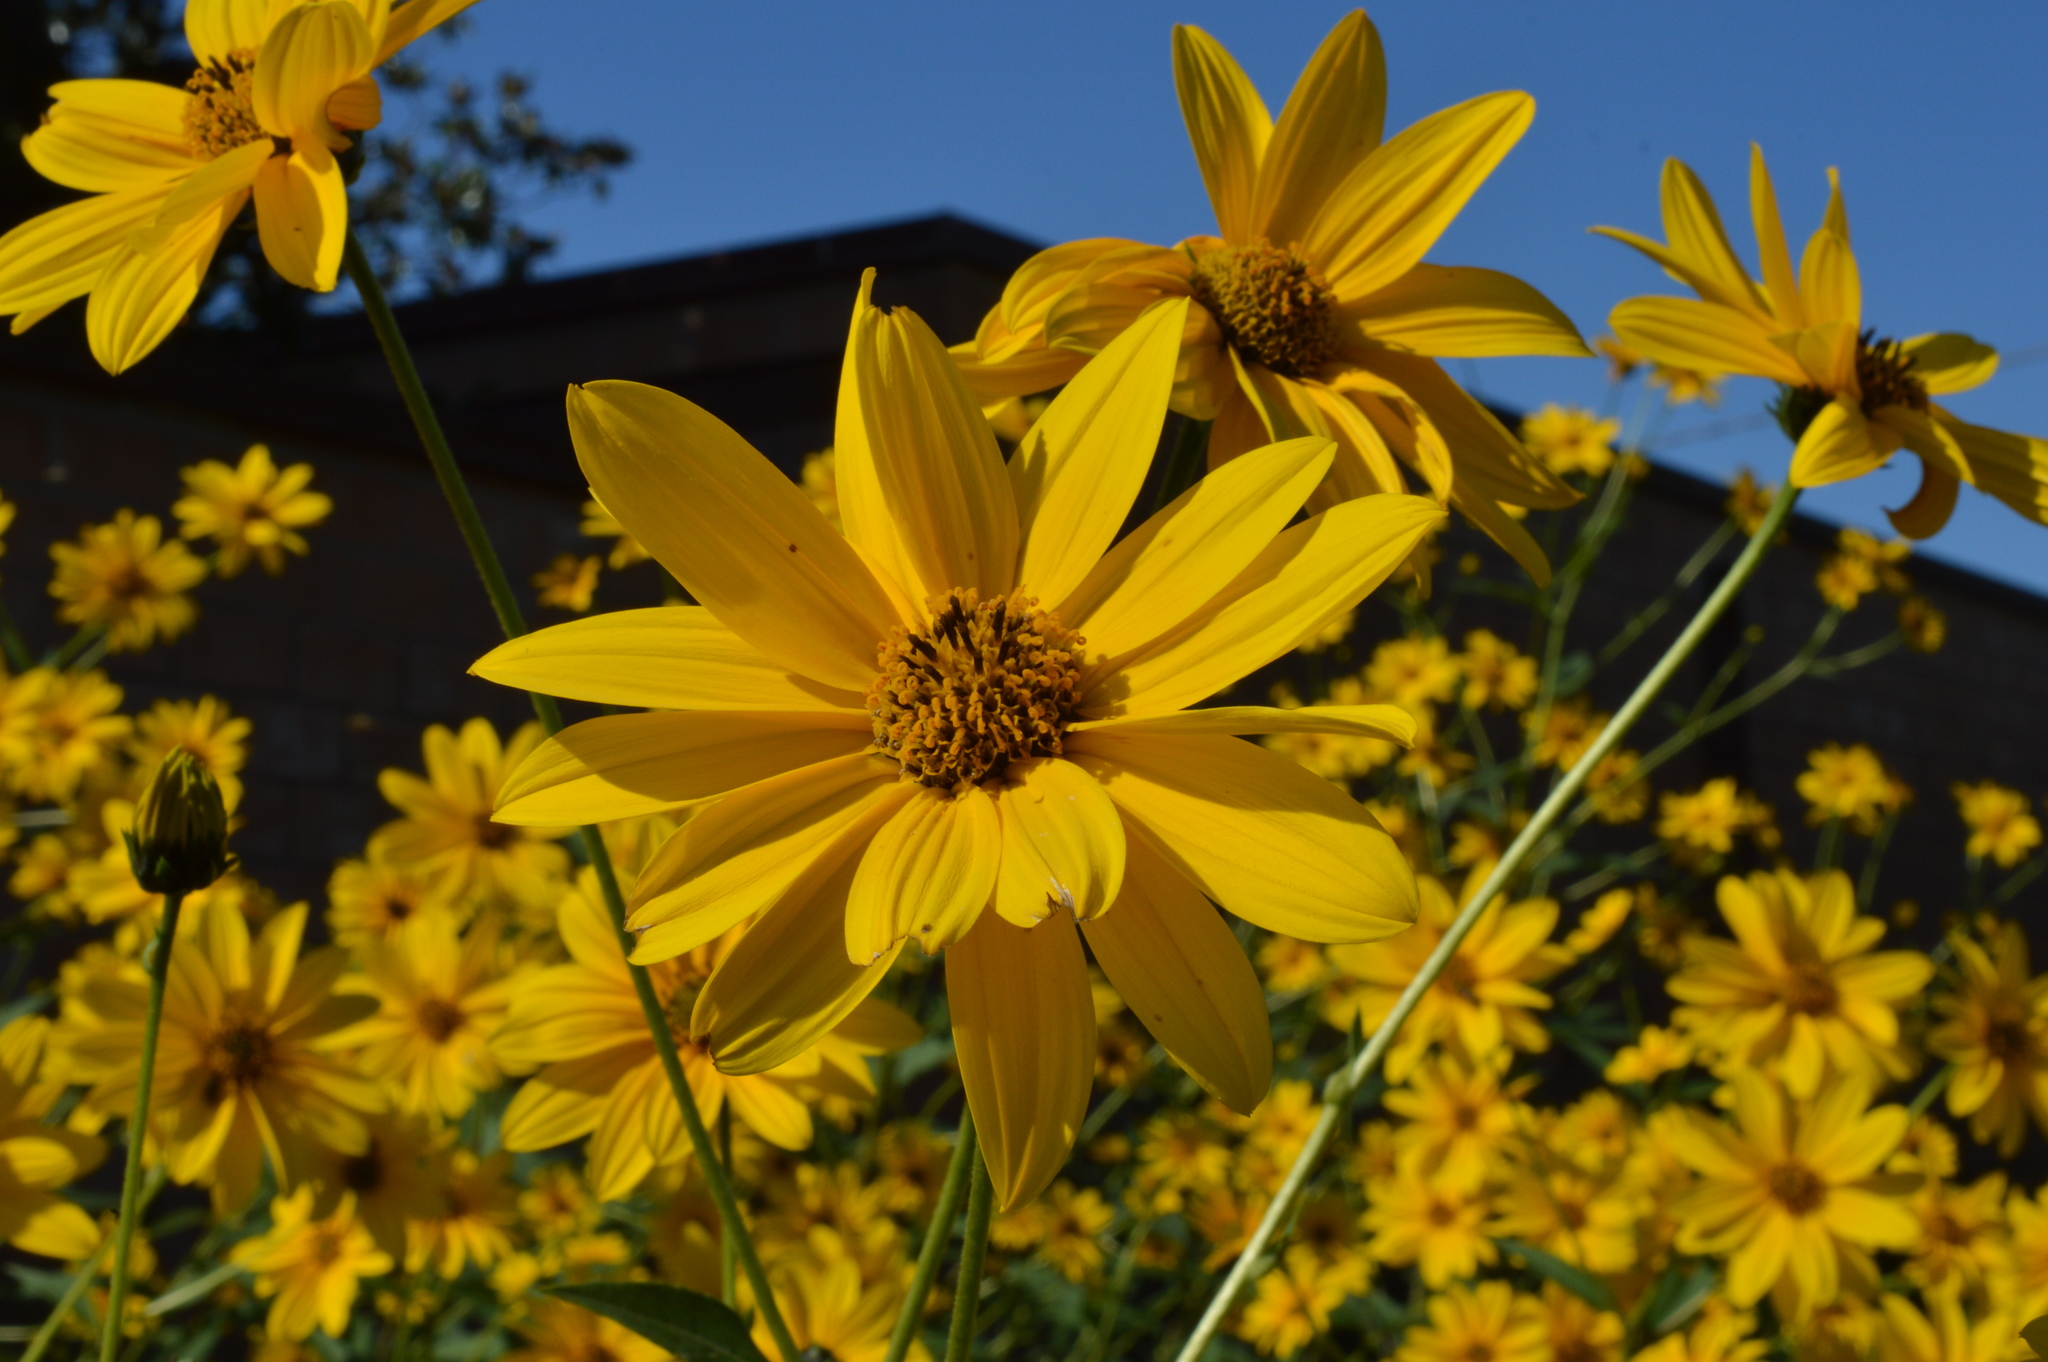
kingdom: Plantae
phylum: Tracheophyta
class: Magnoliopsida
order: Asterales
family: Asteraceae
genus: Helianthus
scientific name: Helianthus tuberosus
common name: Jerusalem artichoke
